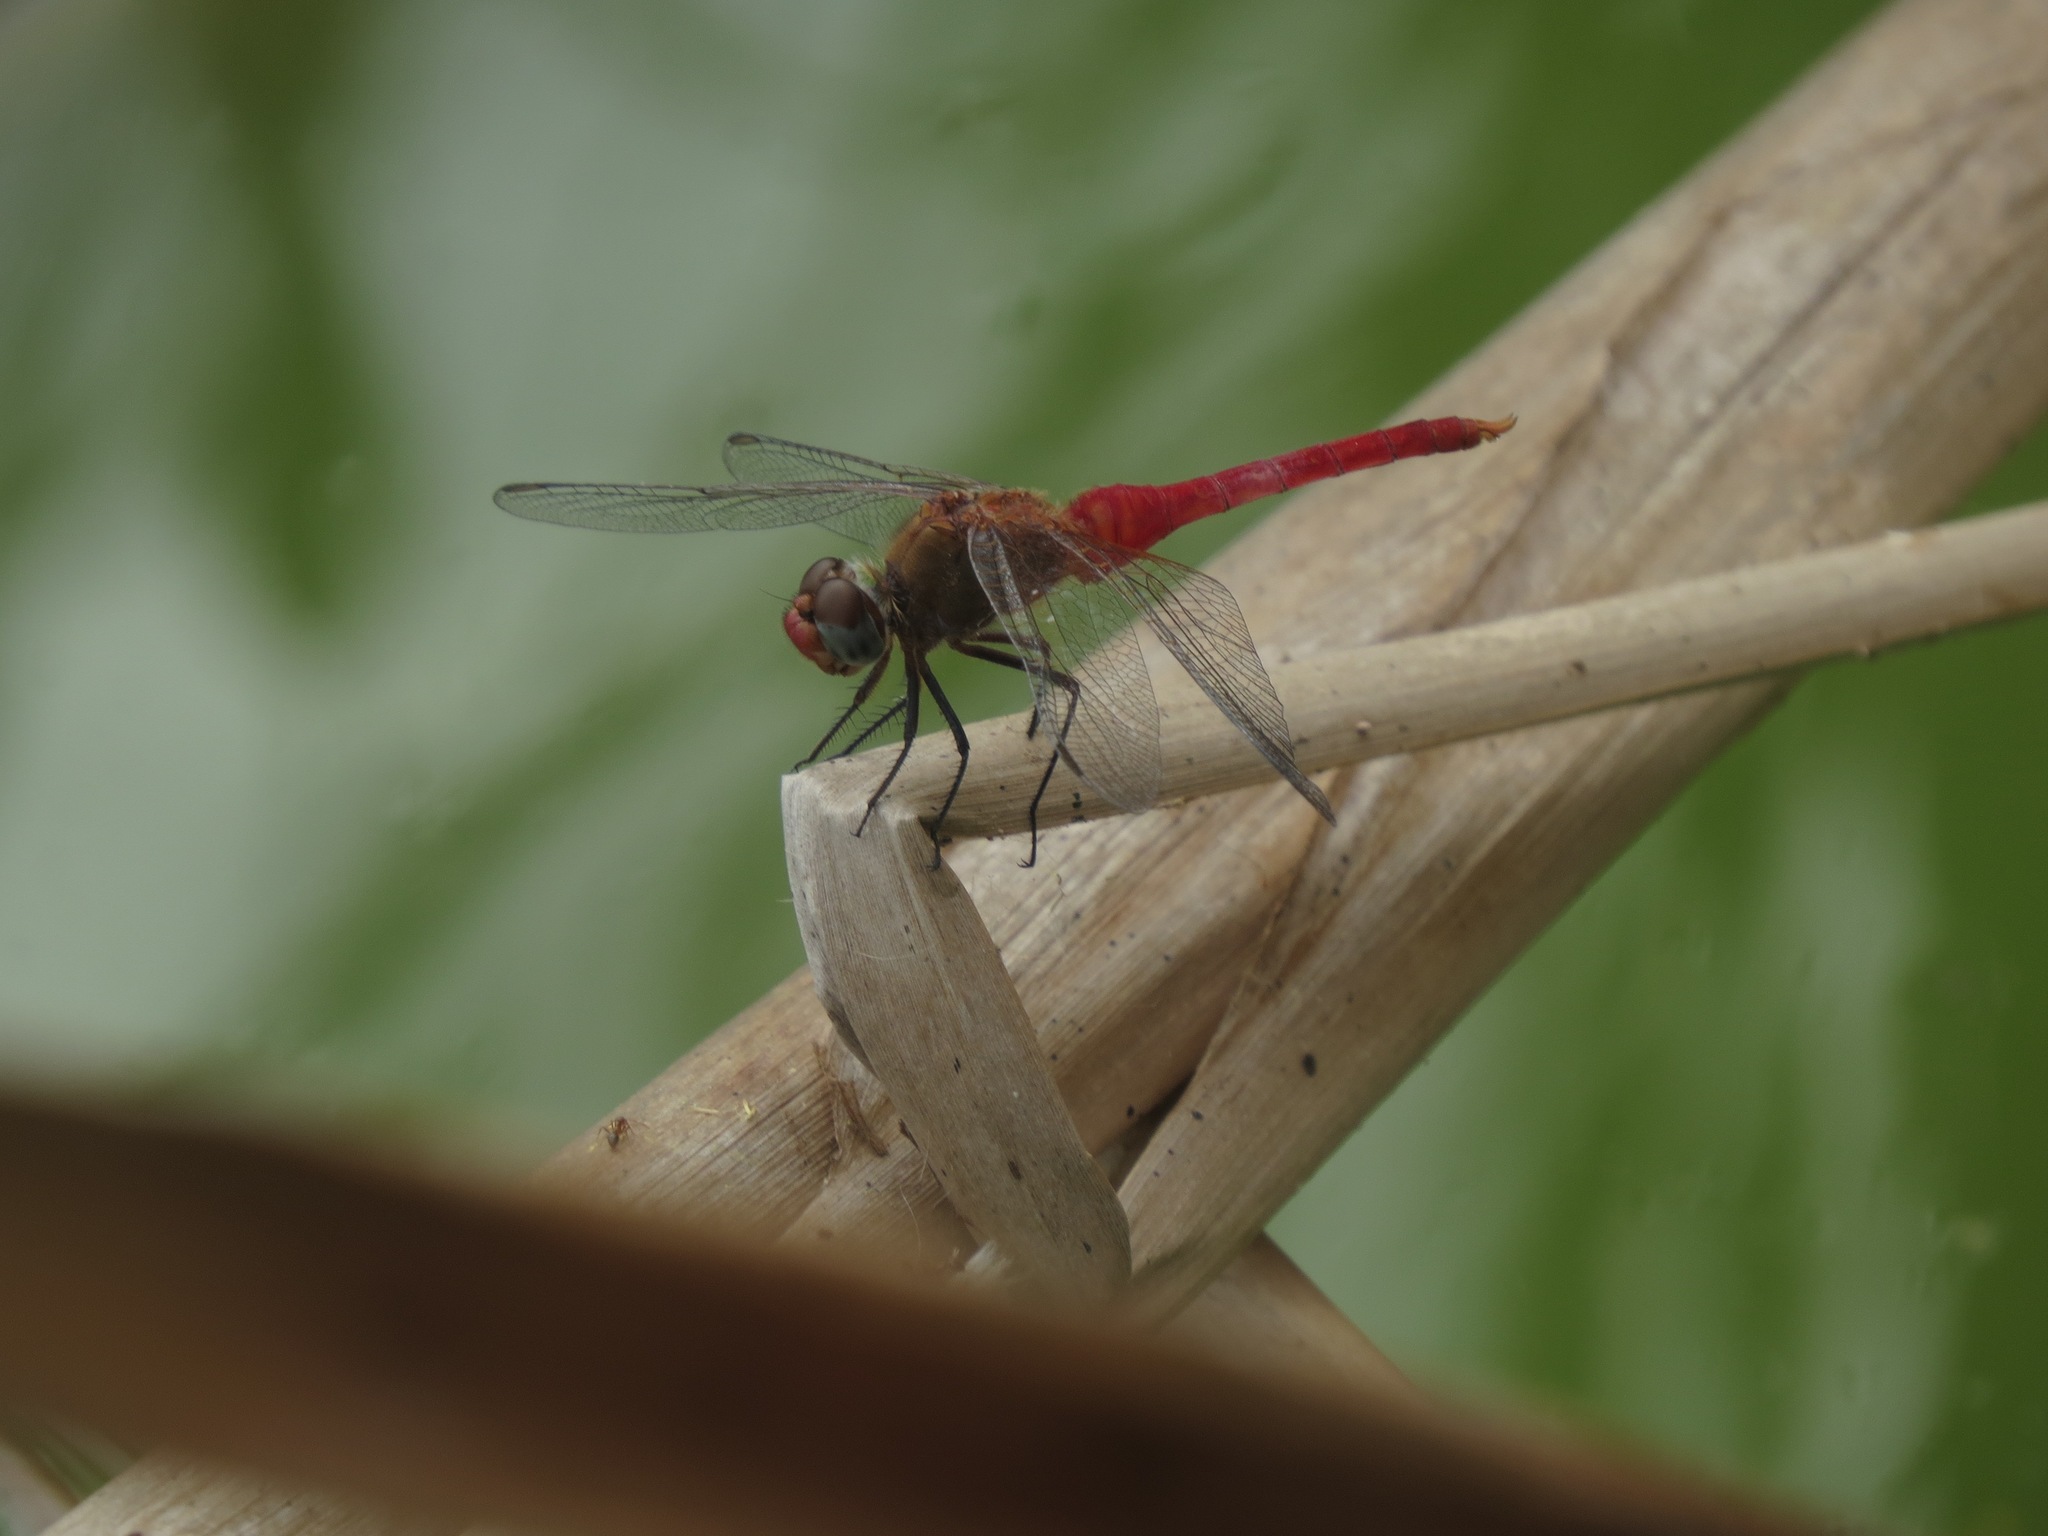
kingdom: Animalia
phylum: Arthropoda
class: Insecta
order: Odonata
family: Libellulidae
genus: Brachymesia
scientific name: Brachymesia furcata
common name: Red-taled pennant
